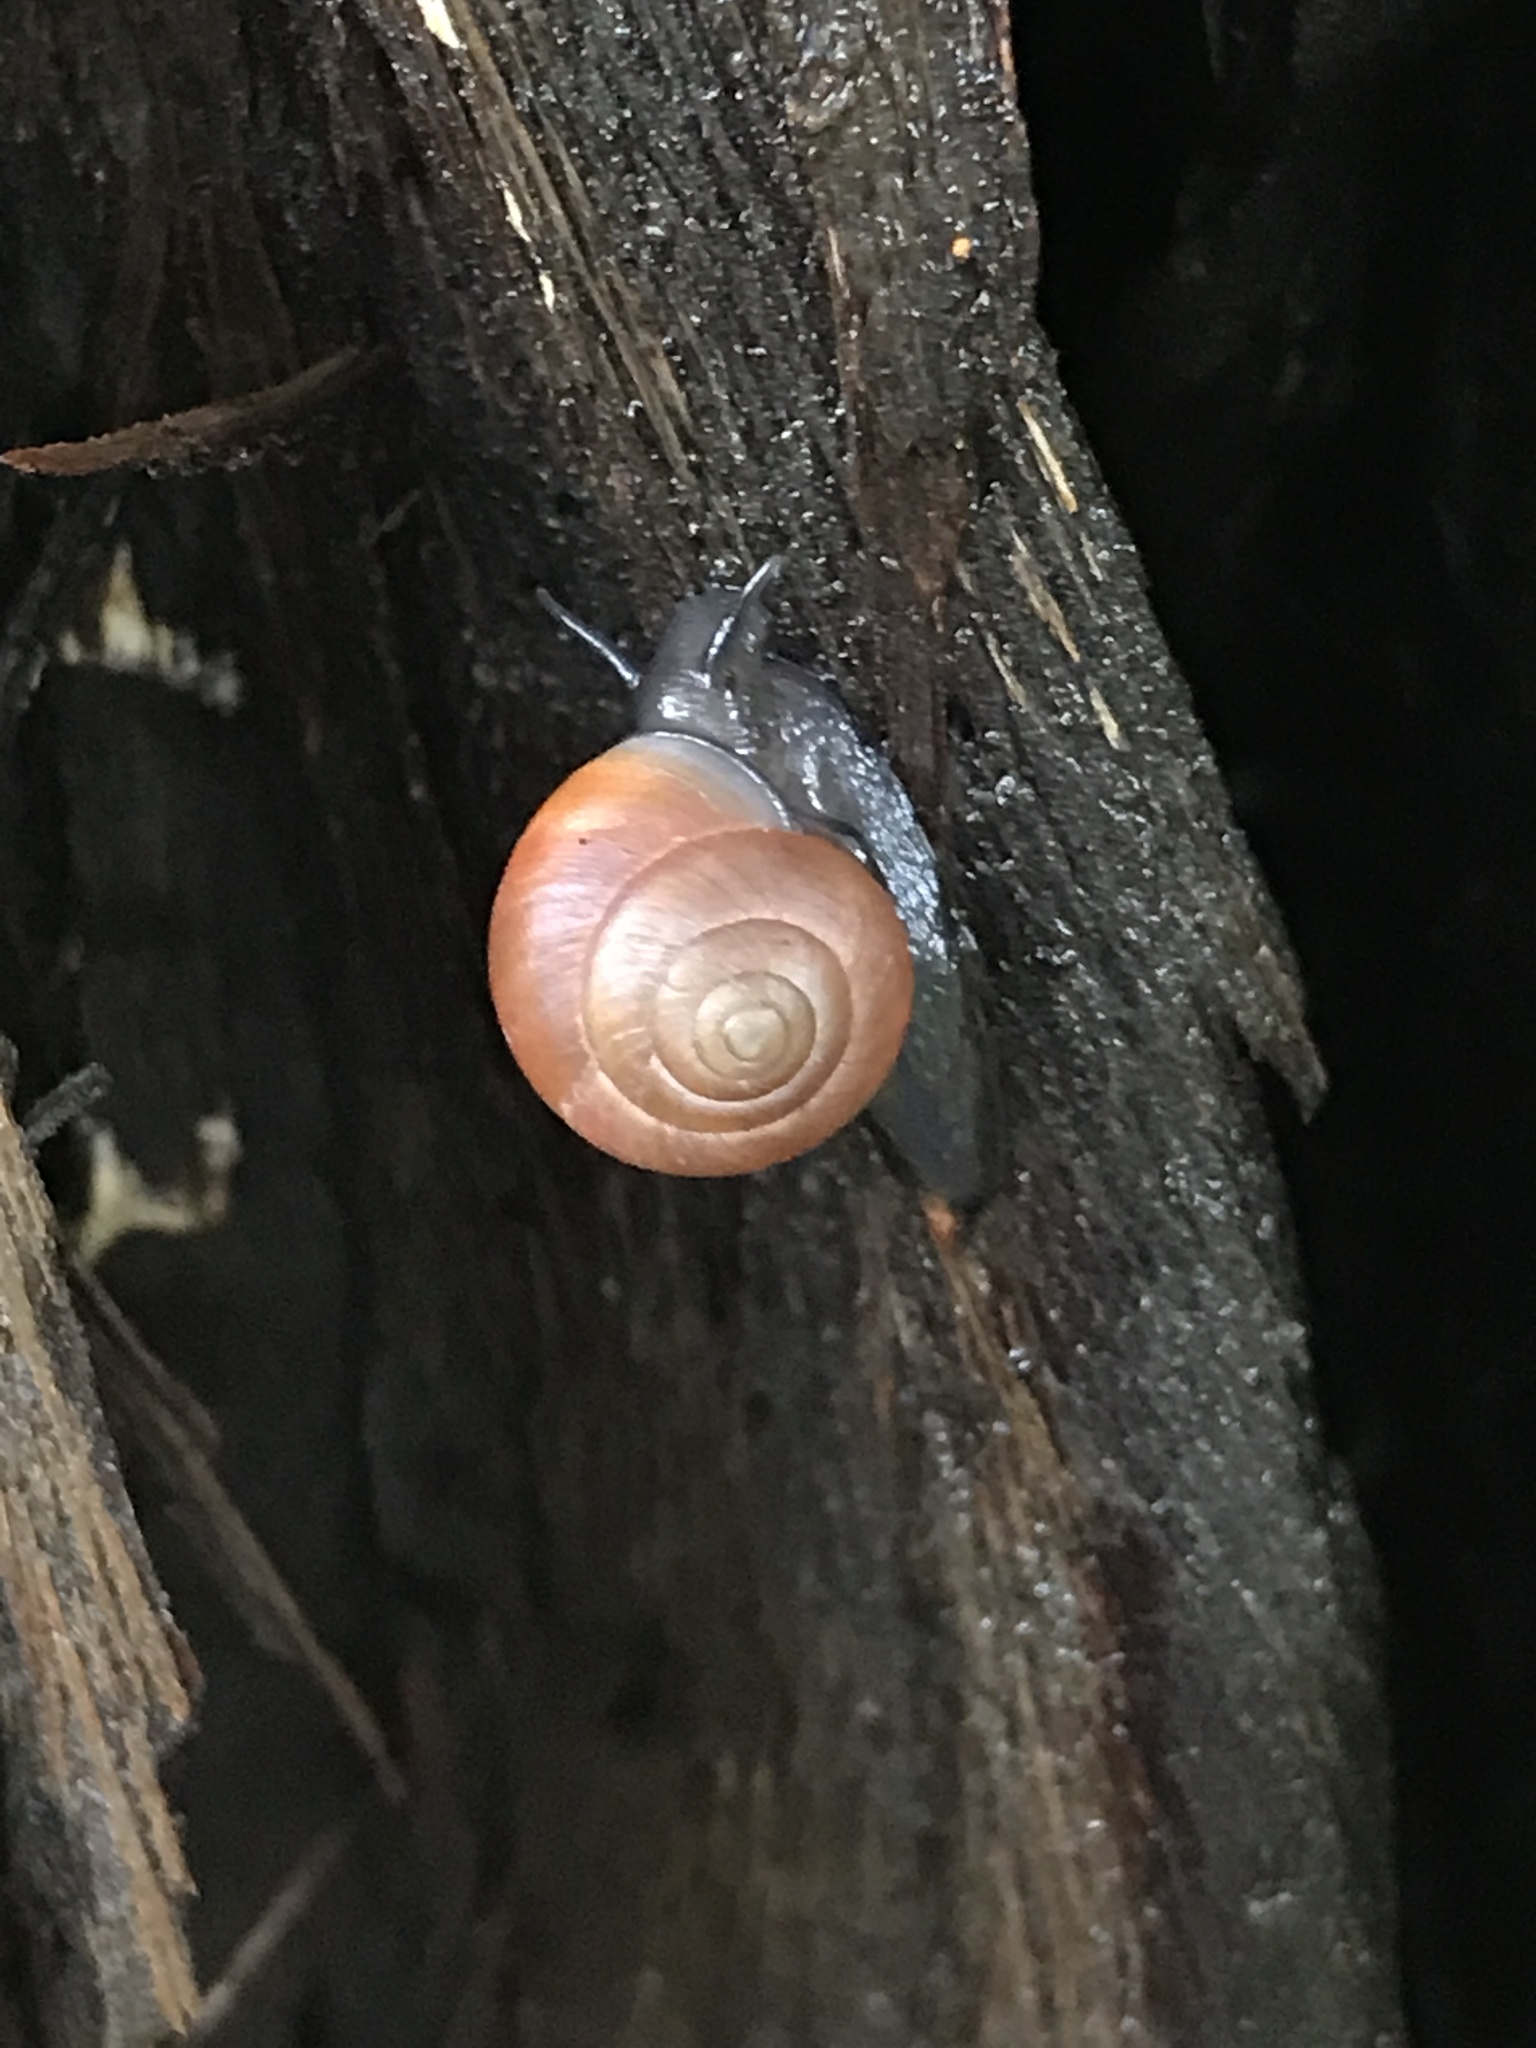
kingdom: Animalia
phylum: Mollusca
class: Gastropoda
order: Cycloneritida
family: Helicinidae
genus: Helicina
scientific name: Helicina orbiculata
